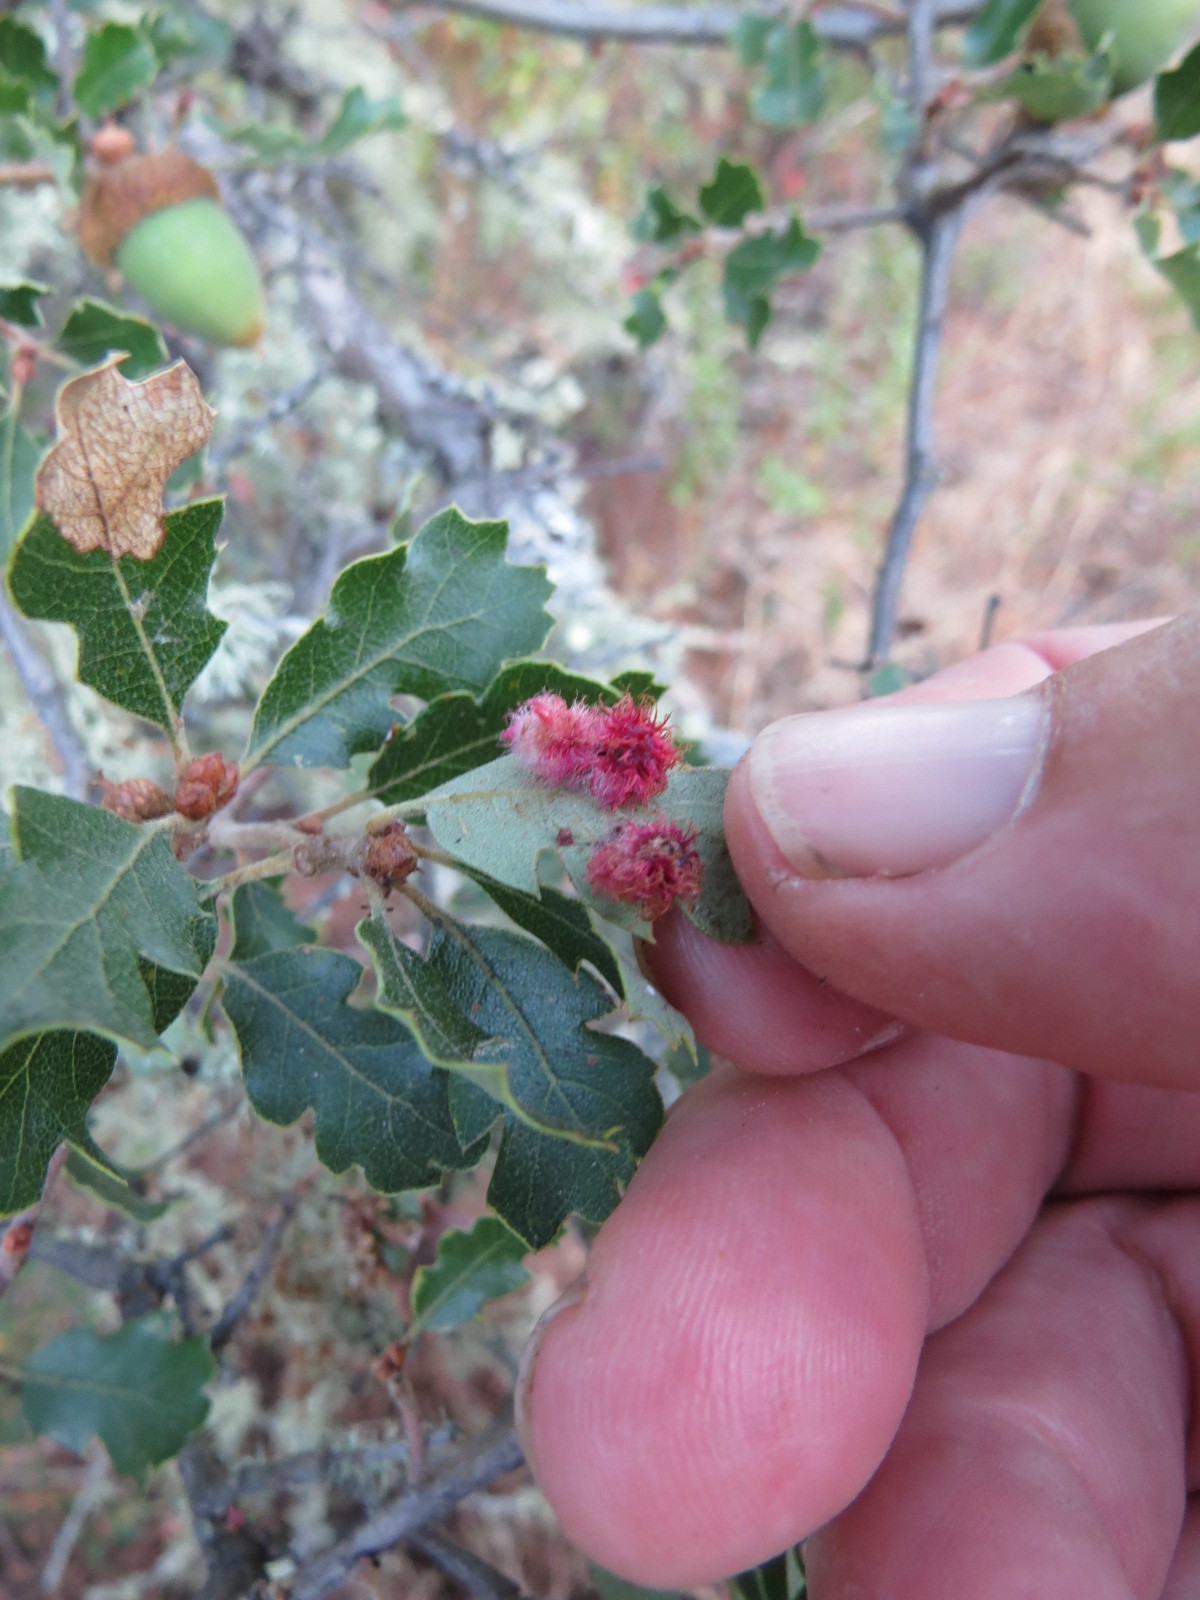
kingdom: Animalia
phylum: Arthropoda
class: Insecta
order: Hymenoptera
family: Cynipidae
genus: Andricus
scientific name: Andricus
